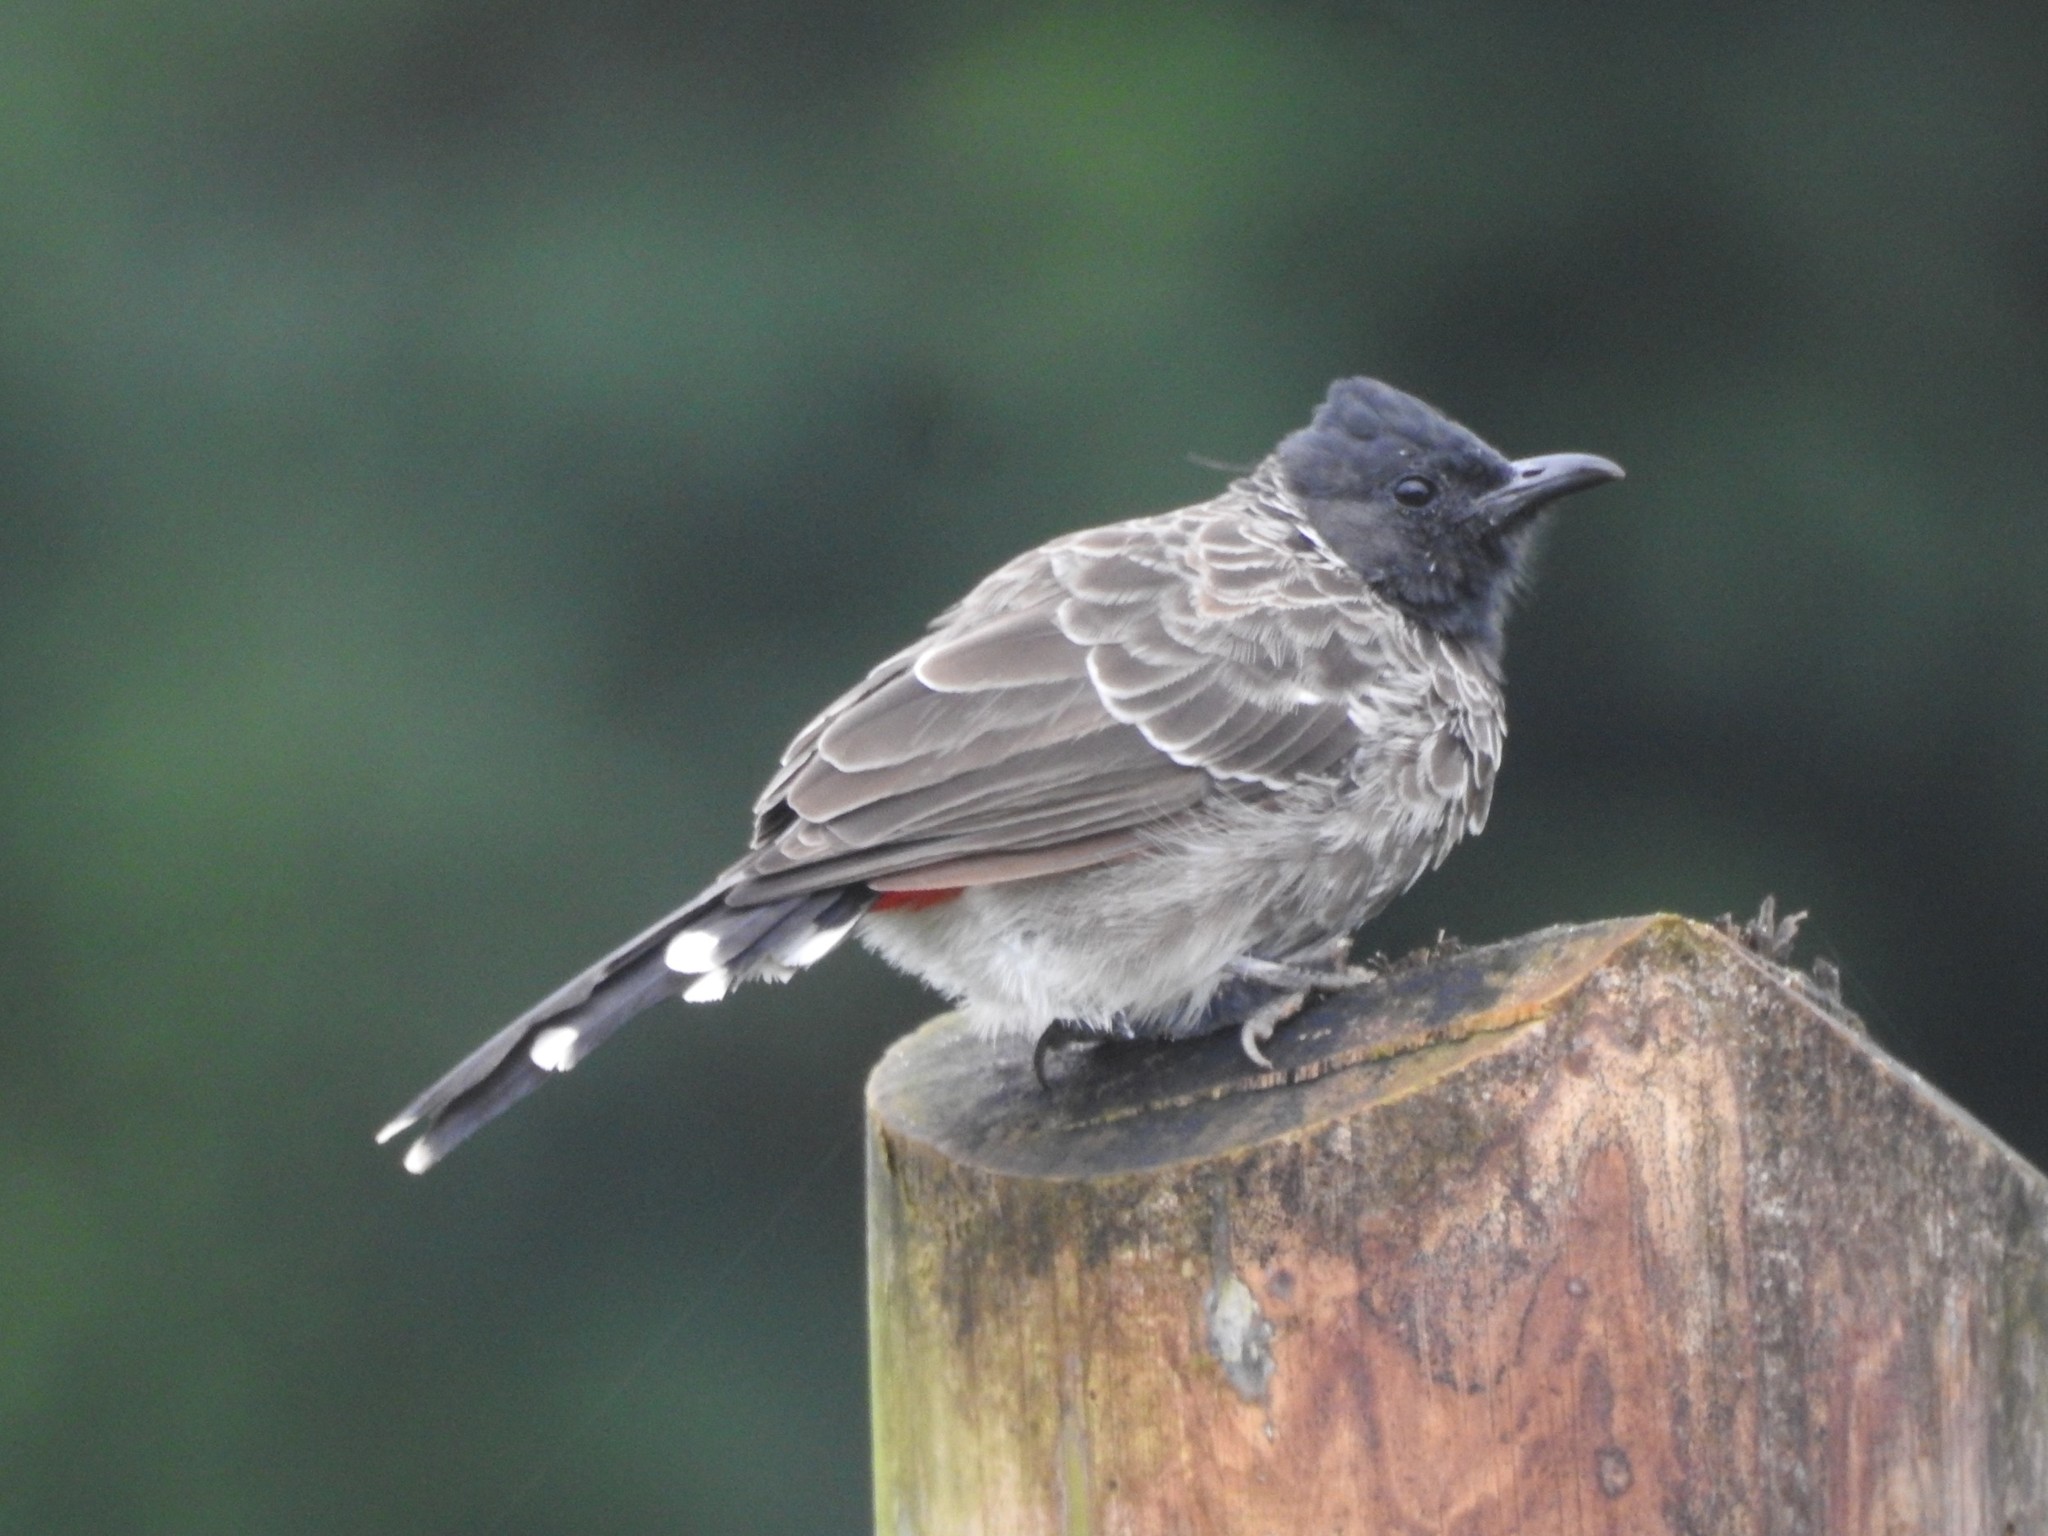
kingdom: Animalia
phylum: Chordata
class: Aves
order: Passeriformes
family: Pycnonotidae
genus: Pycnonotus
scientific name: Pycnonotus cafer
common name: Red-vented bulbul
